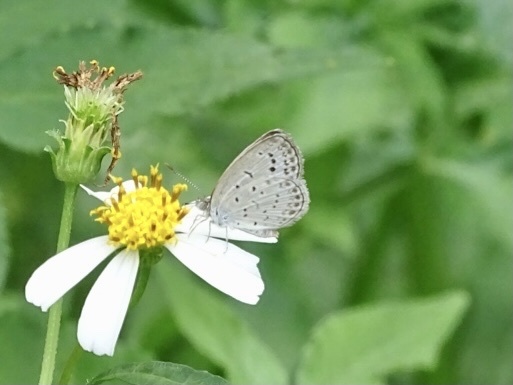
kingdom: Animalia
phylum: Arthropoda
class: Insecta
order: Lepidoptera
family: Lycaenidae
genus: Pseudozizeeria
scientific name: Pseudozizeeria maha
